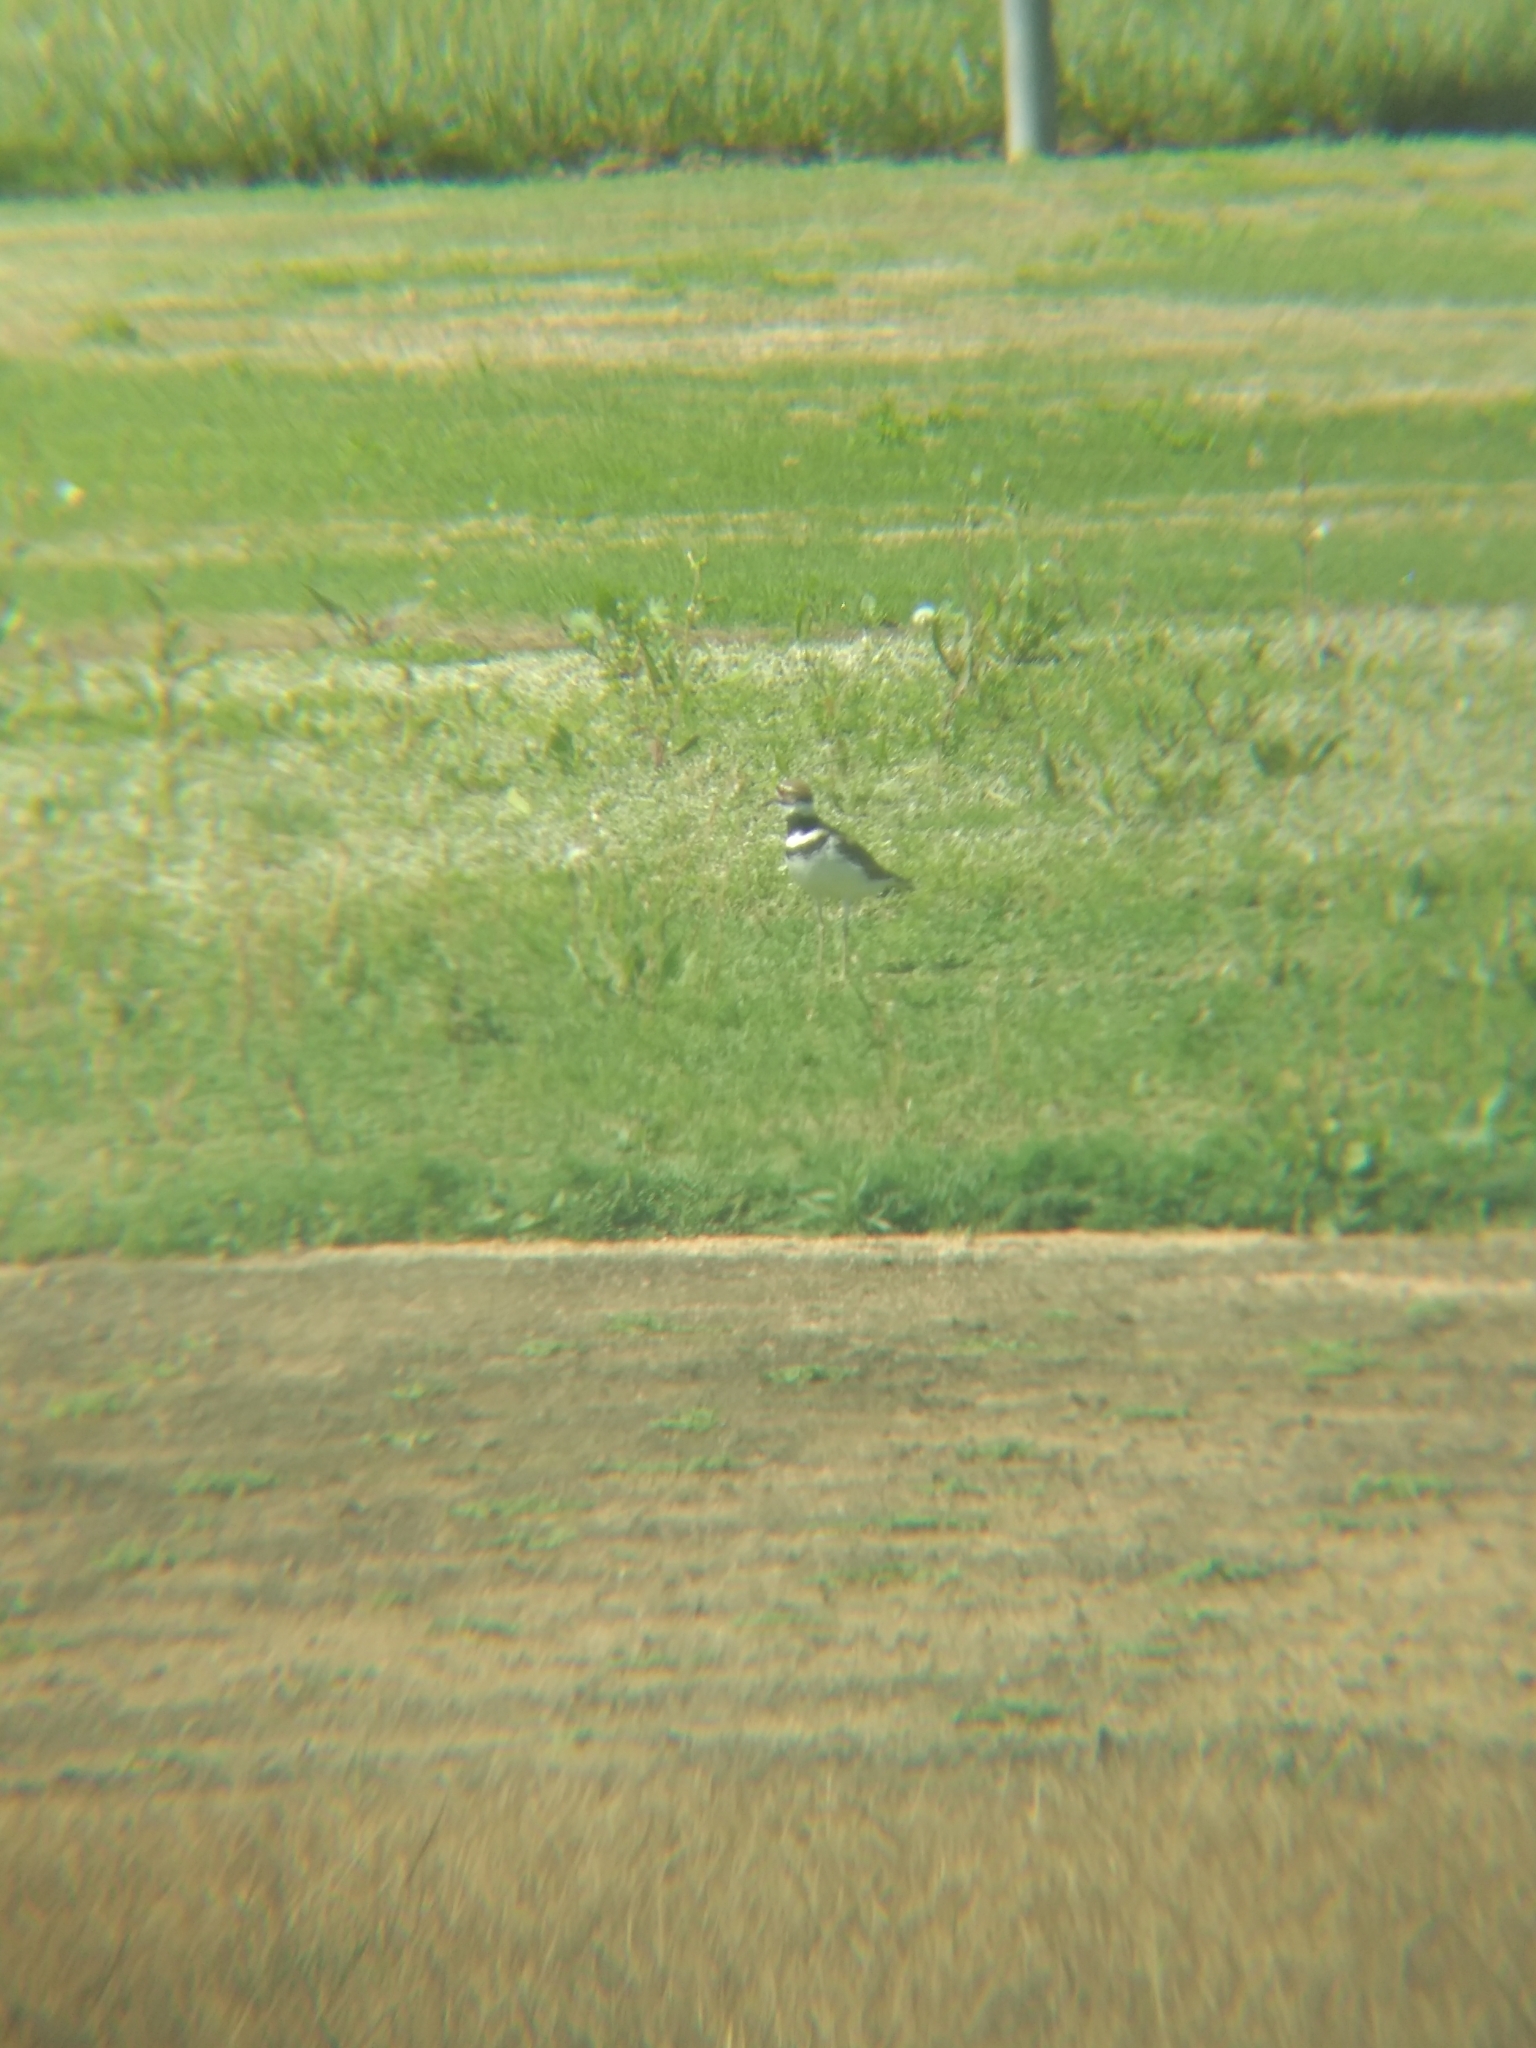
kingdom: Animalia
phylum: Chordata
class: Aves
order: Charadriiformes
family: Charadriidae
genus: Charadrius
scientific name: Charadrius vociferus
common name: Killdeer
